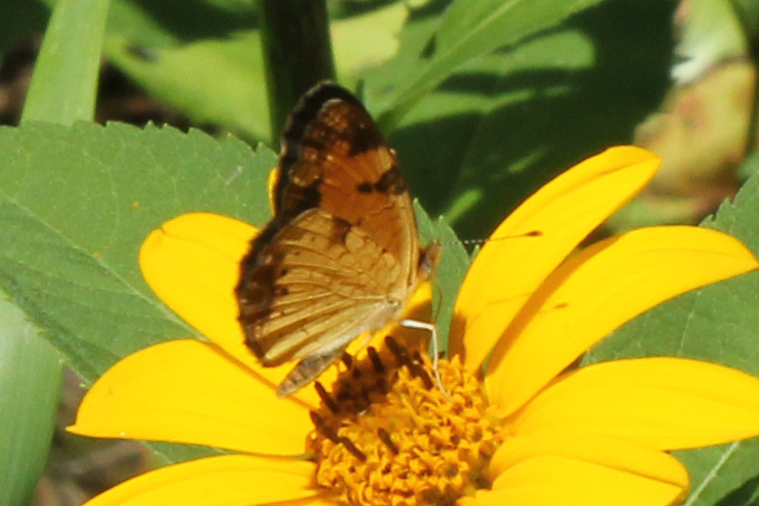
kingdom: Animalia
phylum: Arthropoda
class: Insecta
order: Lepidoptera
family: Nymphalidae
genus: Phyciodes
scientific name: Phyciodes tharos
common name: Pearl crescent
